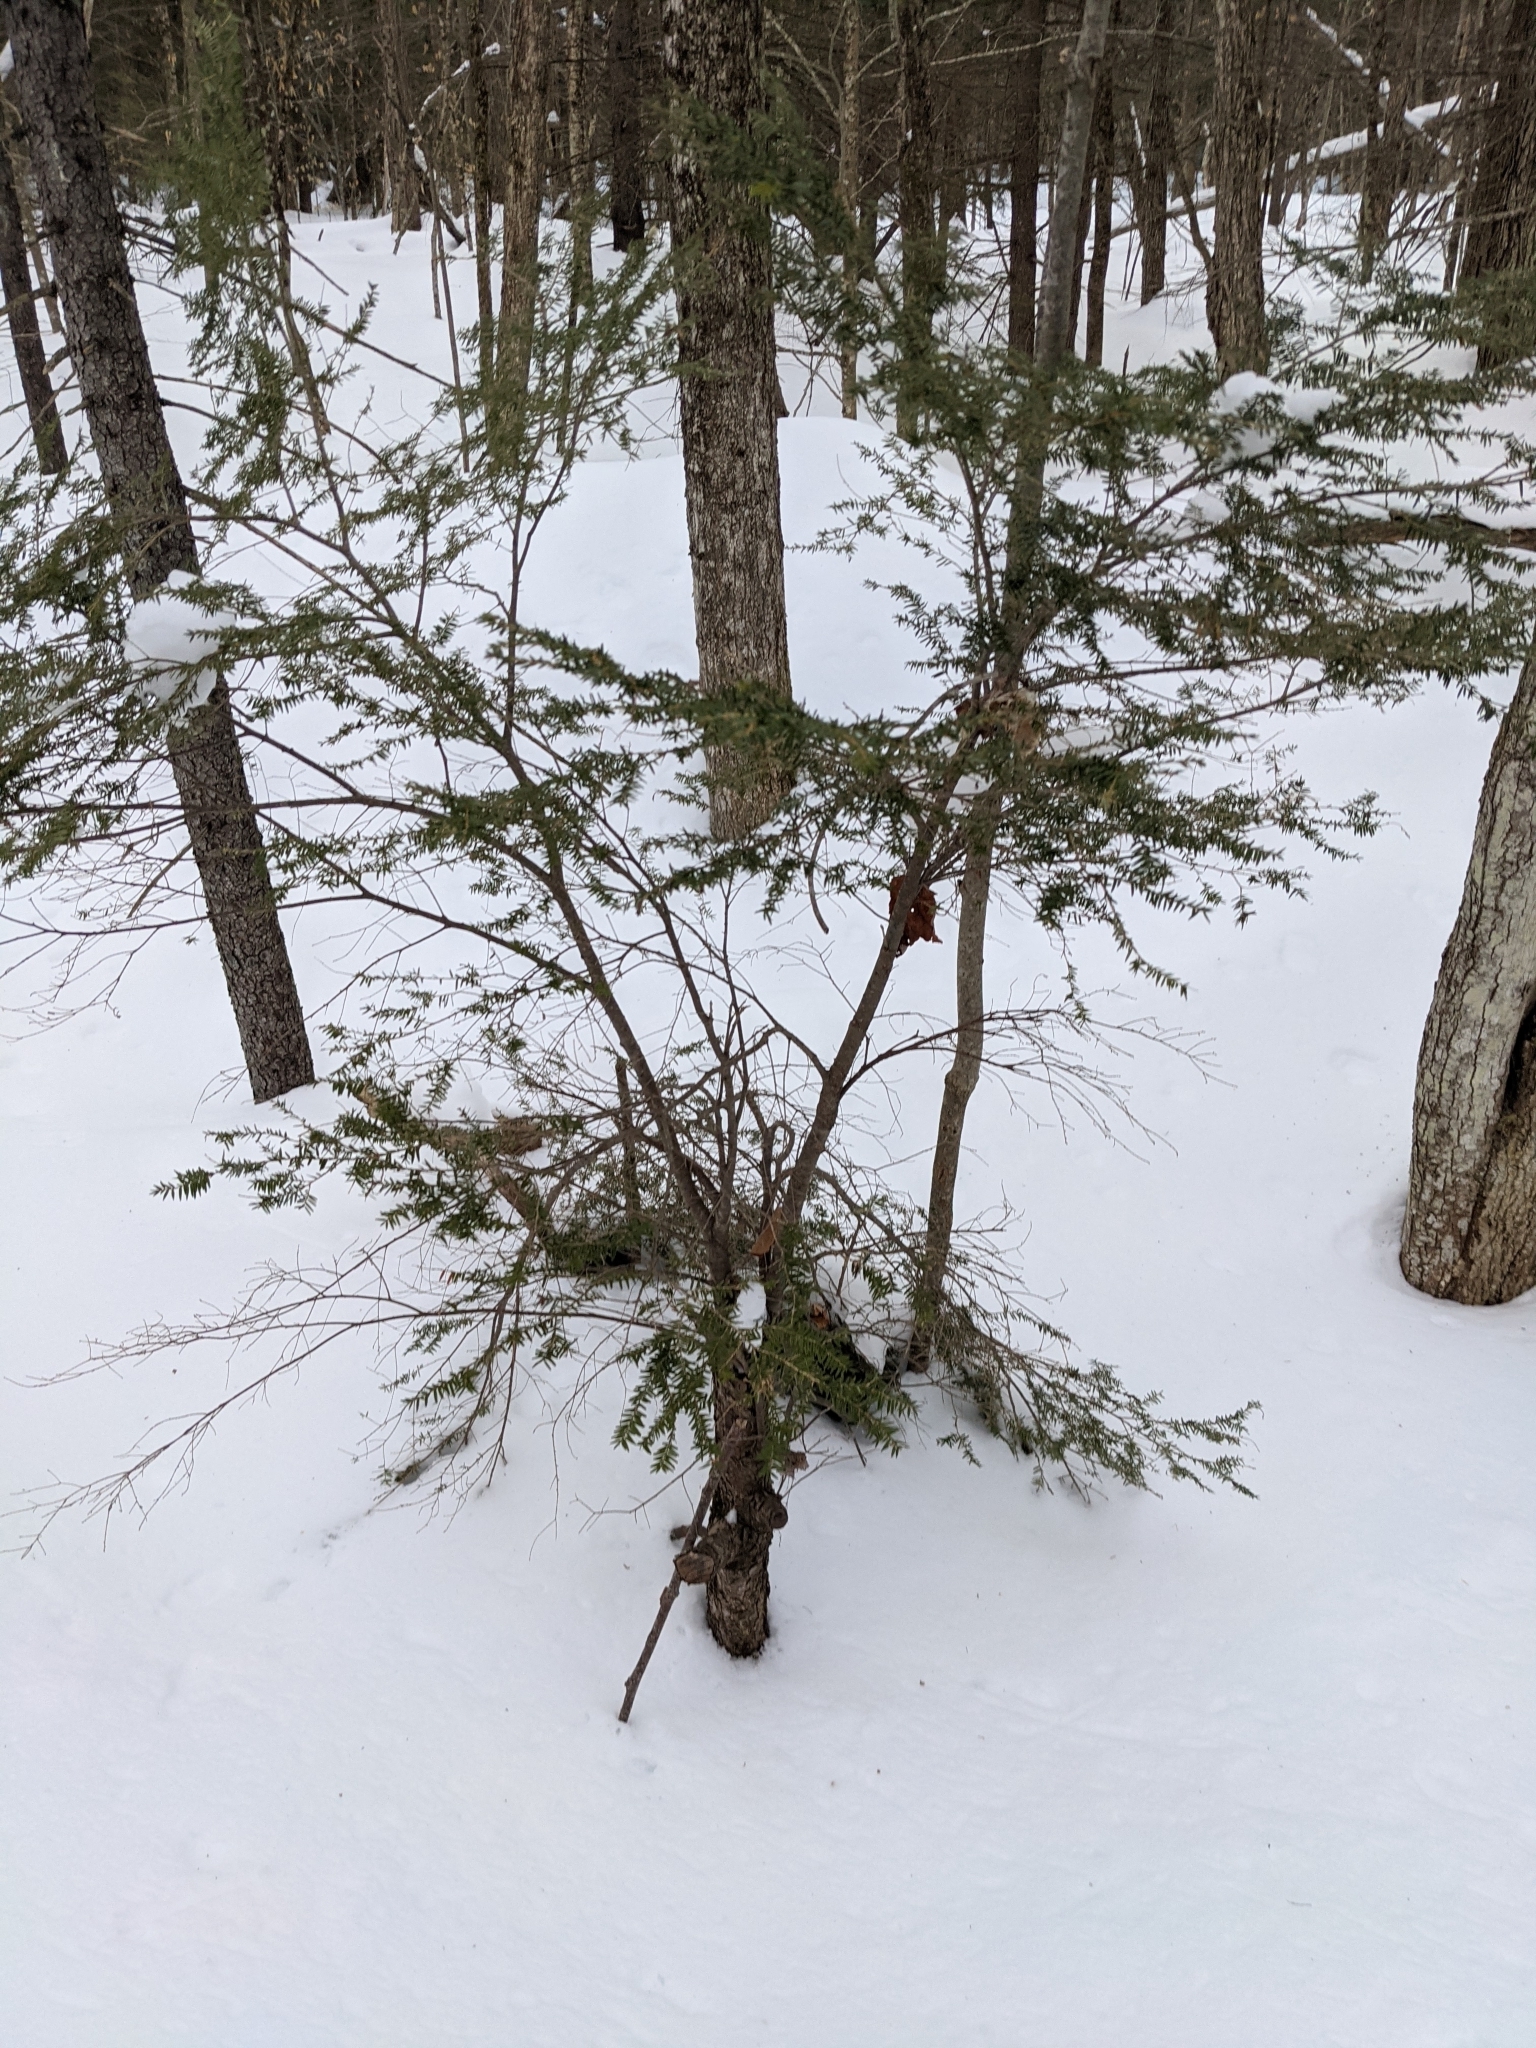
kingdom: Plantae
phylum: Tracheophyta
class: Pinopsida
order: Pinales
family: Pinaceae
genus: Tsuga
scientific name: Tsuga canadensis
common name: Eastern hemlock
